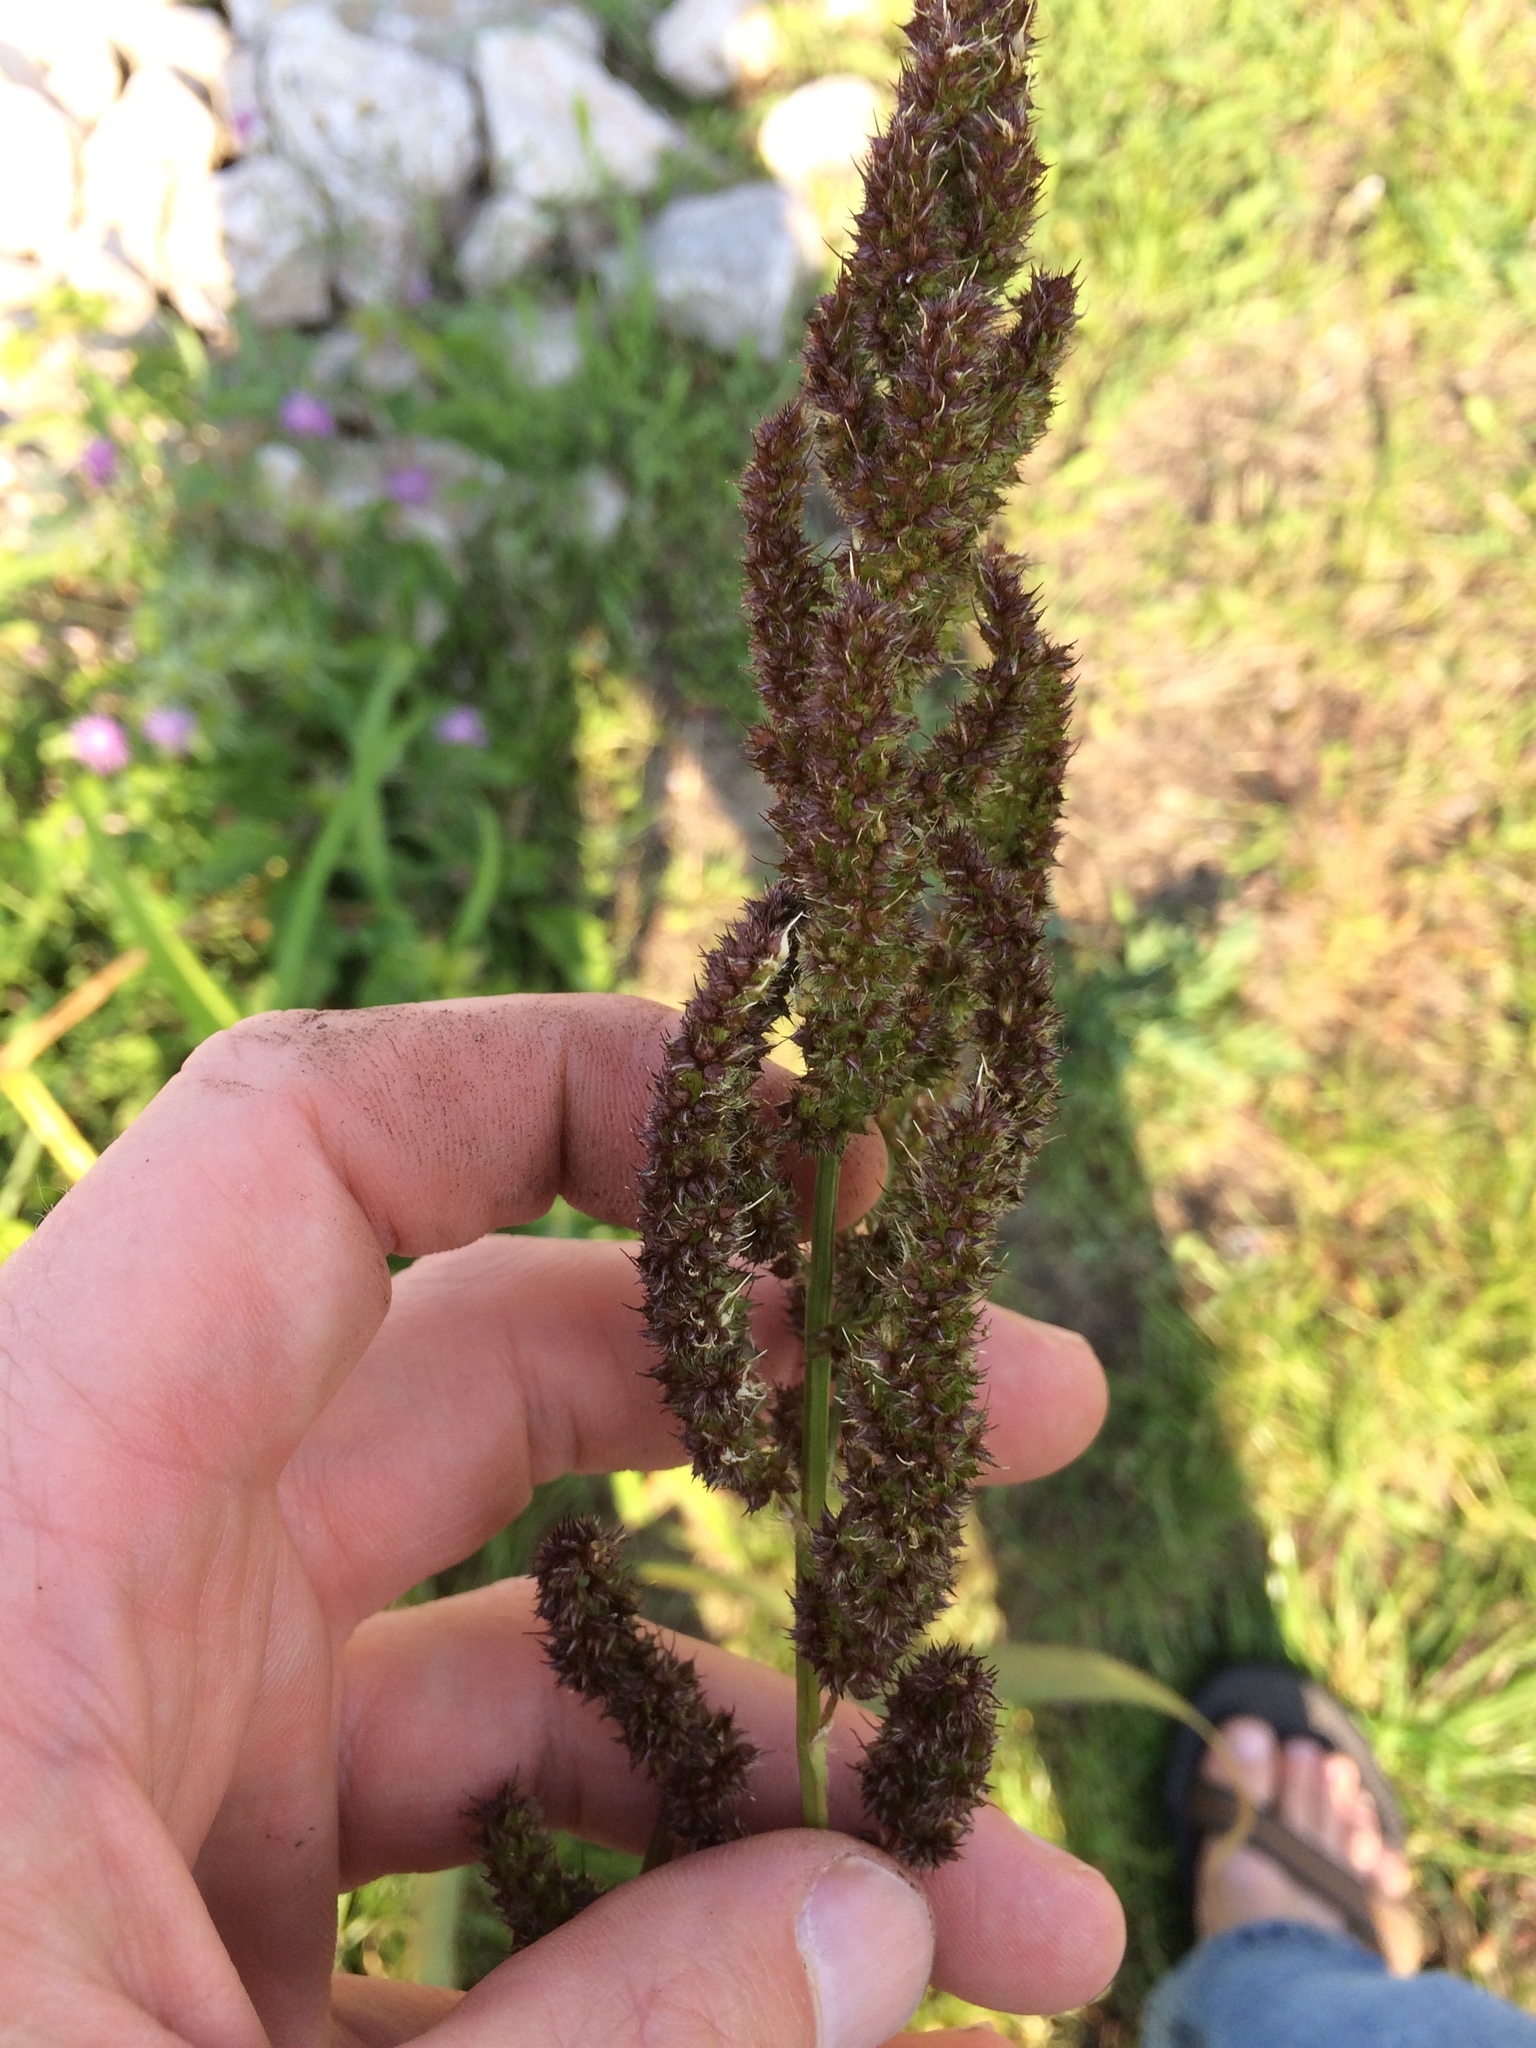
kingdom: Plantae
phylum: Tracheophyta
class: Liliopsida
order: Poales
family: Poaceae
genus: Echinochloa
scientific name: Echinochloa muricata
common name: American barnyard grass
